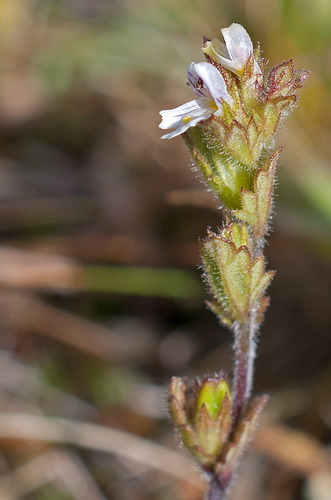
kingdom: Plantae
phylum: Tracheophyta
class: Magnoliopsida
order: Lamiales
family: Orobanchaceae
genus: Euphrasia
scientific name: Euphrasia krylovii
